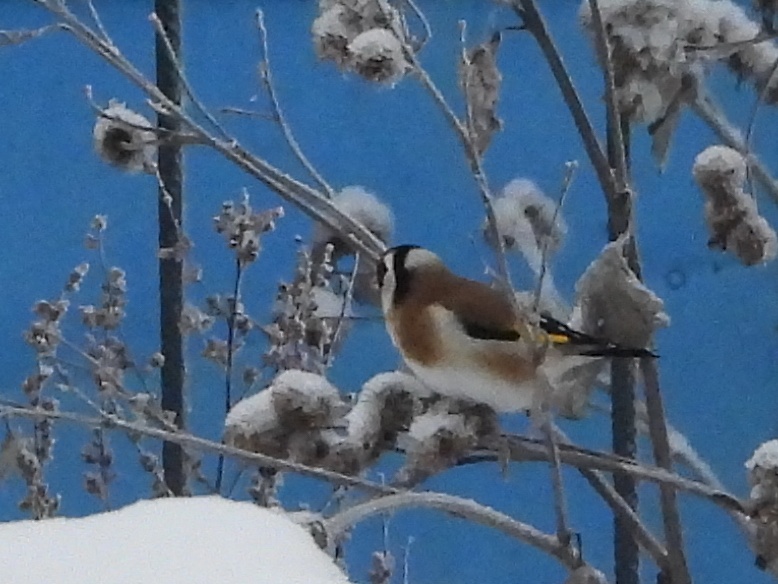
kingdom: Animalia
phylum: Chordata
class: Aves
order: Passeriformes
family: Fringillidae
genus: Carduelis
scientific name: Carduelis carduelis
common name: European goldfinch
